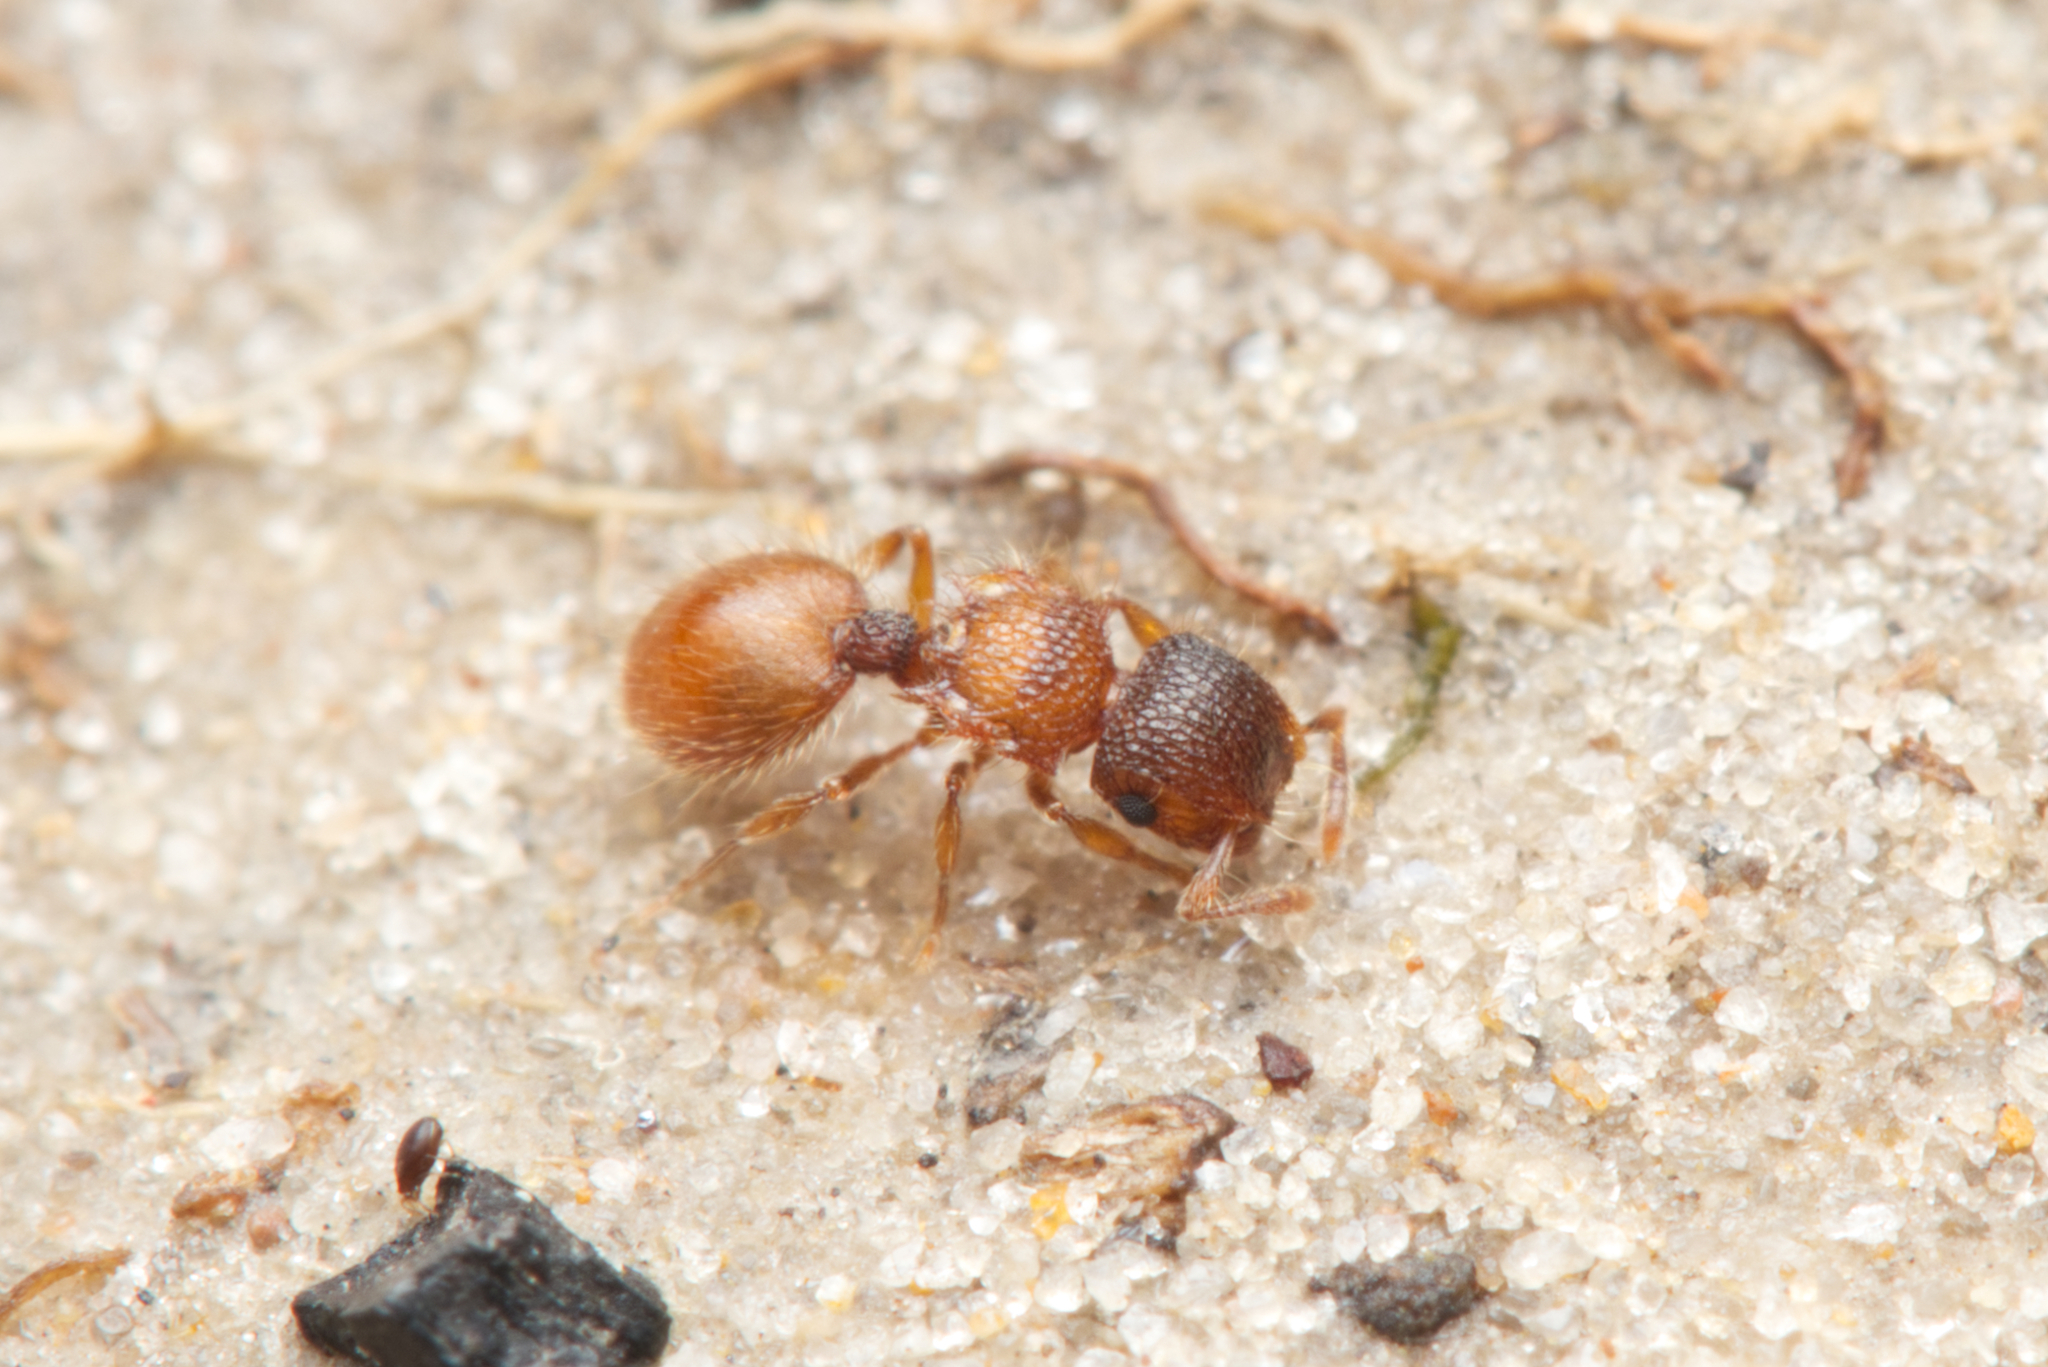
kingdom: Animalia
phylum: Arthropoda
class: Insecta
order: Hymenoptera
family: Formicidae
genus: Meranoplus
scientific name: Meranoplus froggatti
